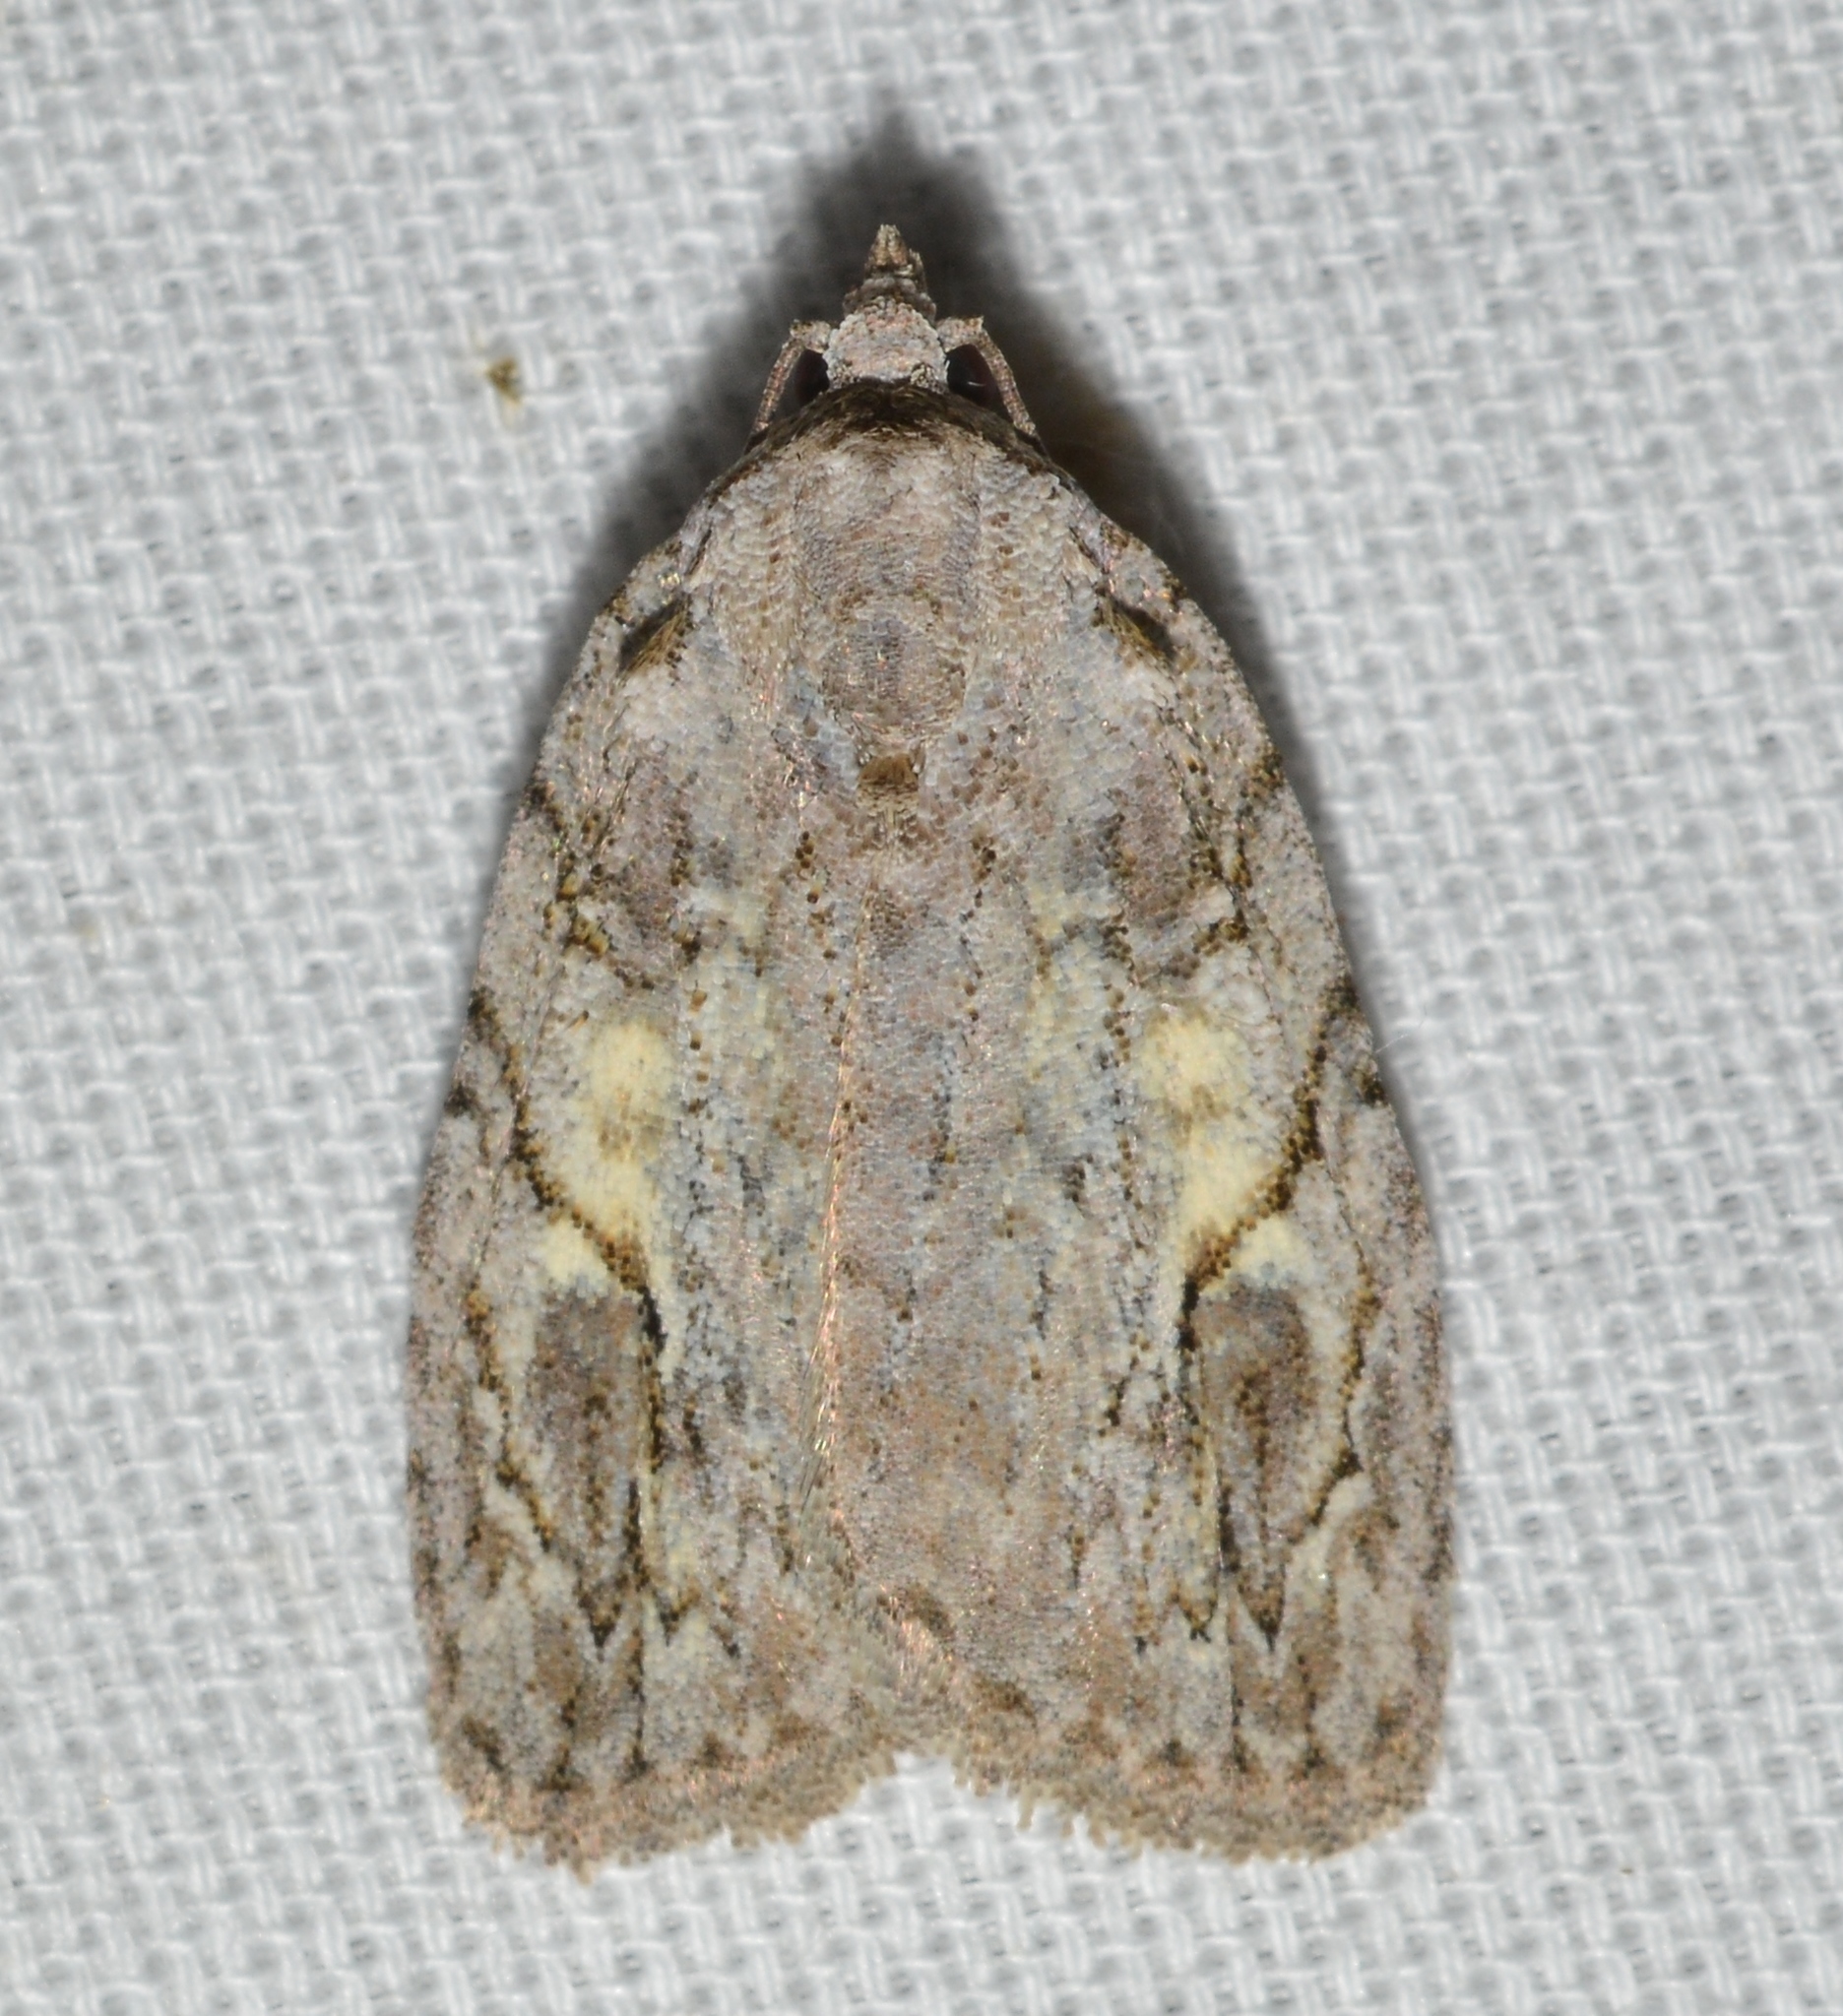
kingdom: Animalia
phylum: Arthropoda
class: Insecta
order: Lepidoptera
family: Noctuidae
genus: Balsa
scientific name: Balsa labecula
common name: White-blotched balsa moth
